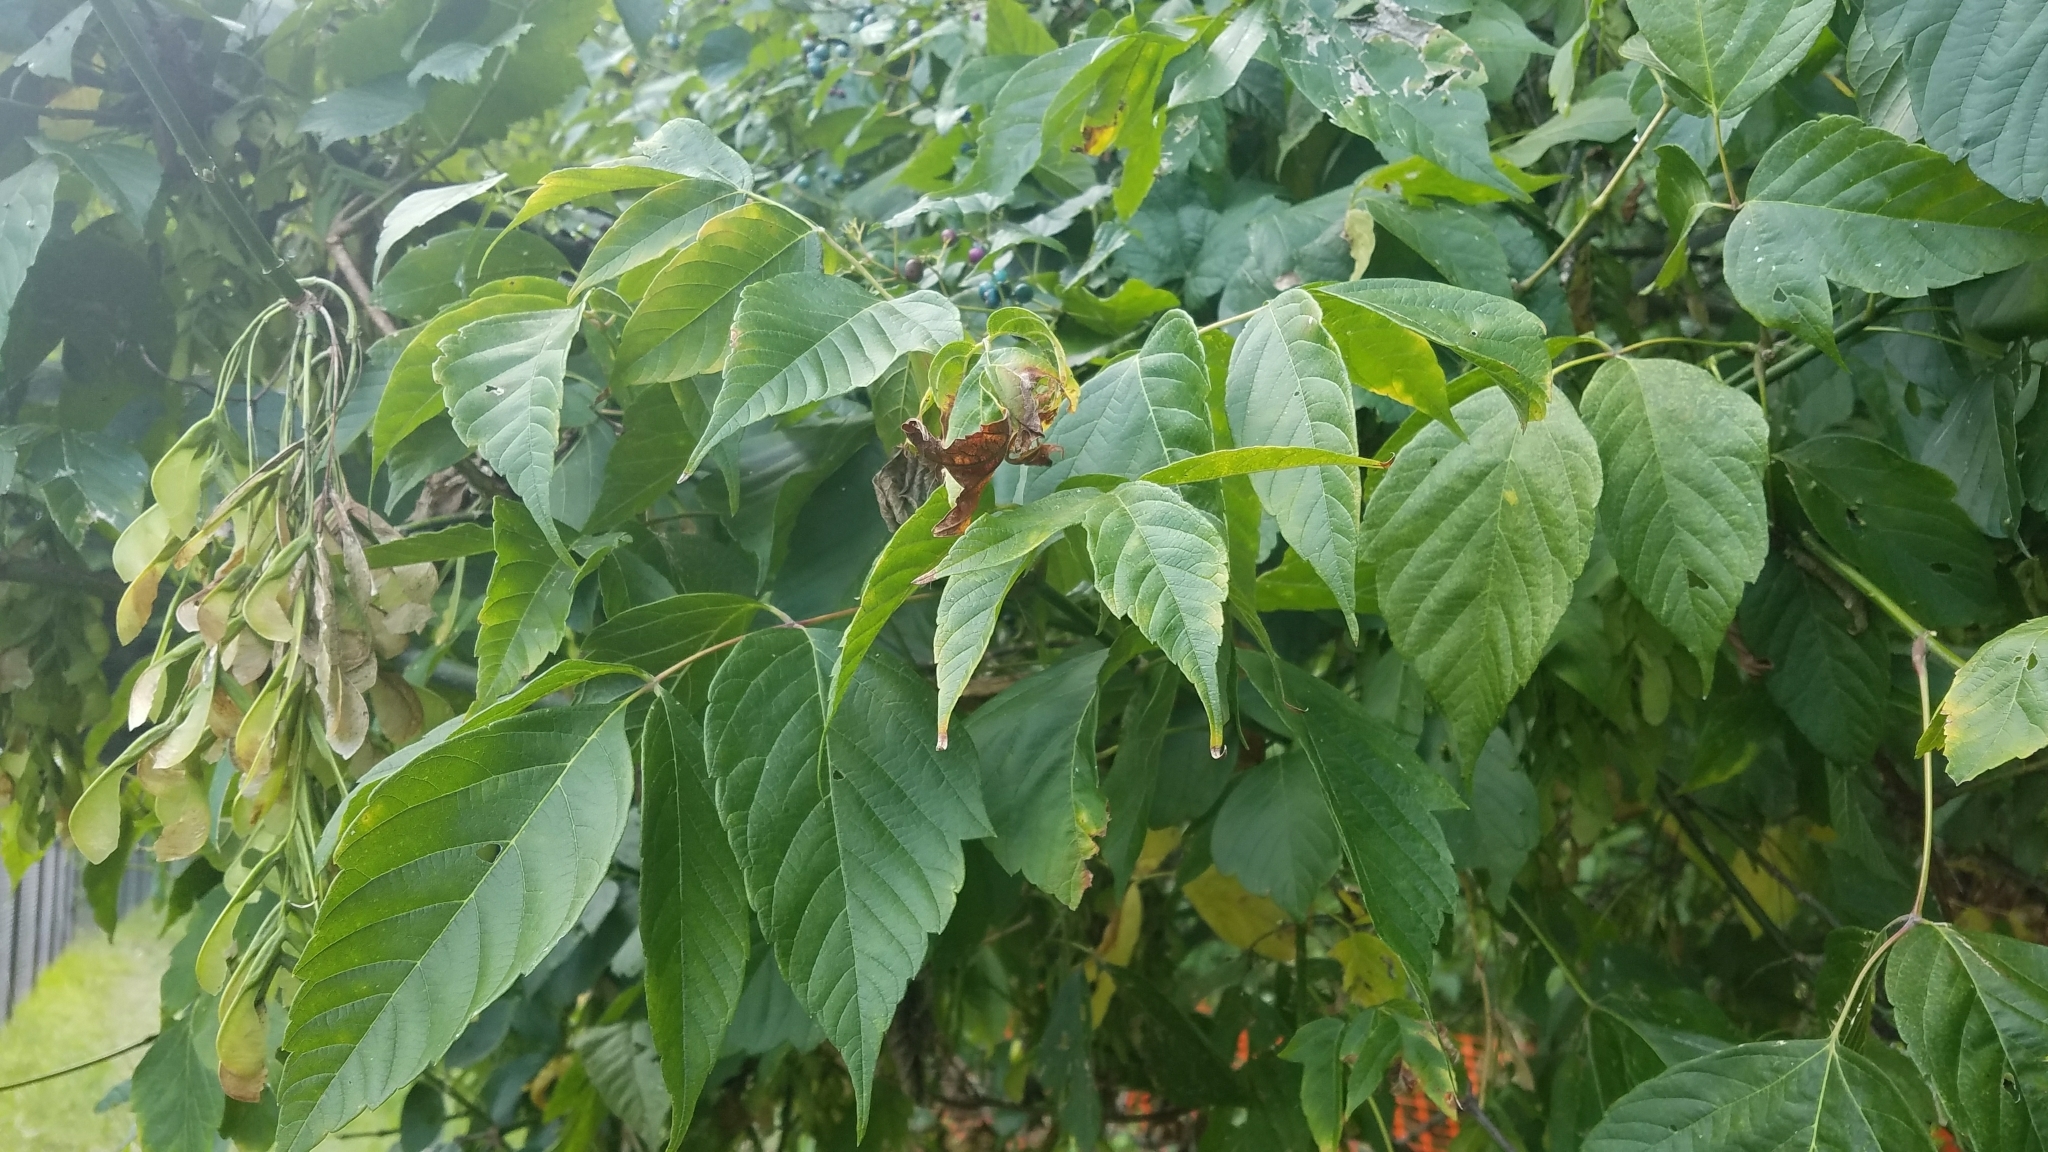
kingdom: Plantae
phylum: Tracheophyta
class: Magnoliopsida
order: Sapindales
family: Sapindaceae
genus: Acer
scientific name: Acer negundo
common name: Ashleaf maple
